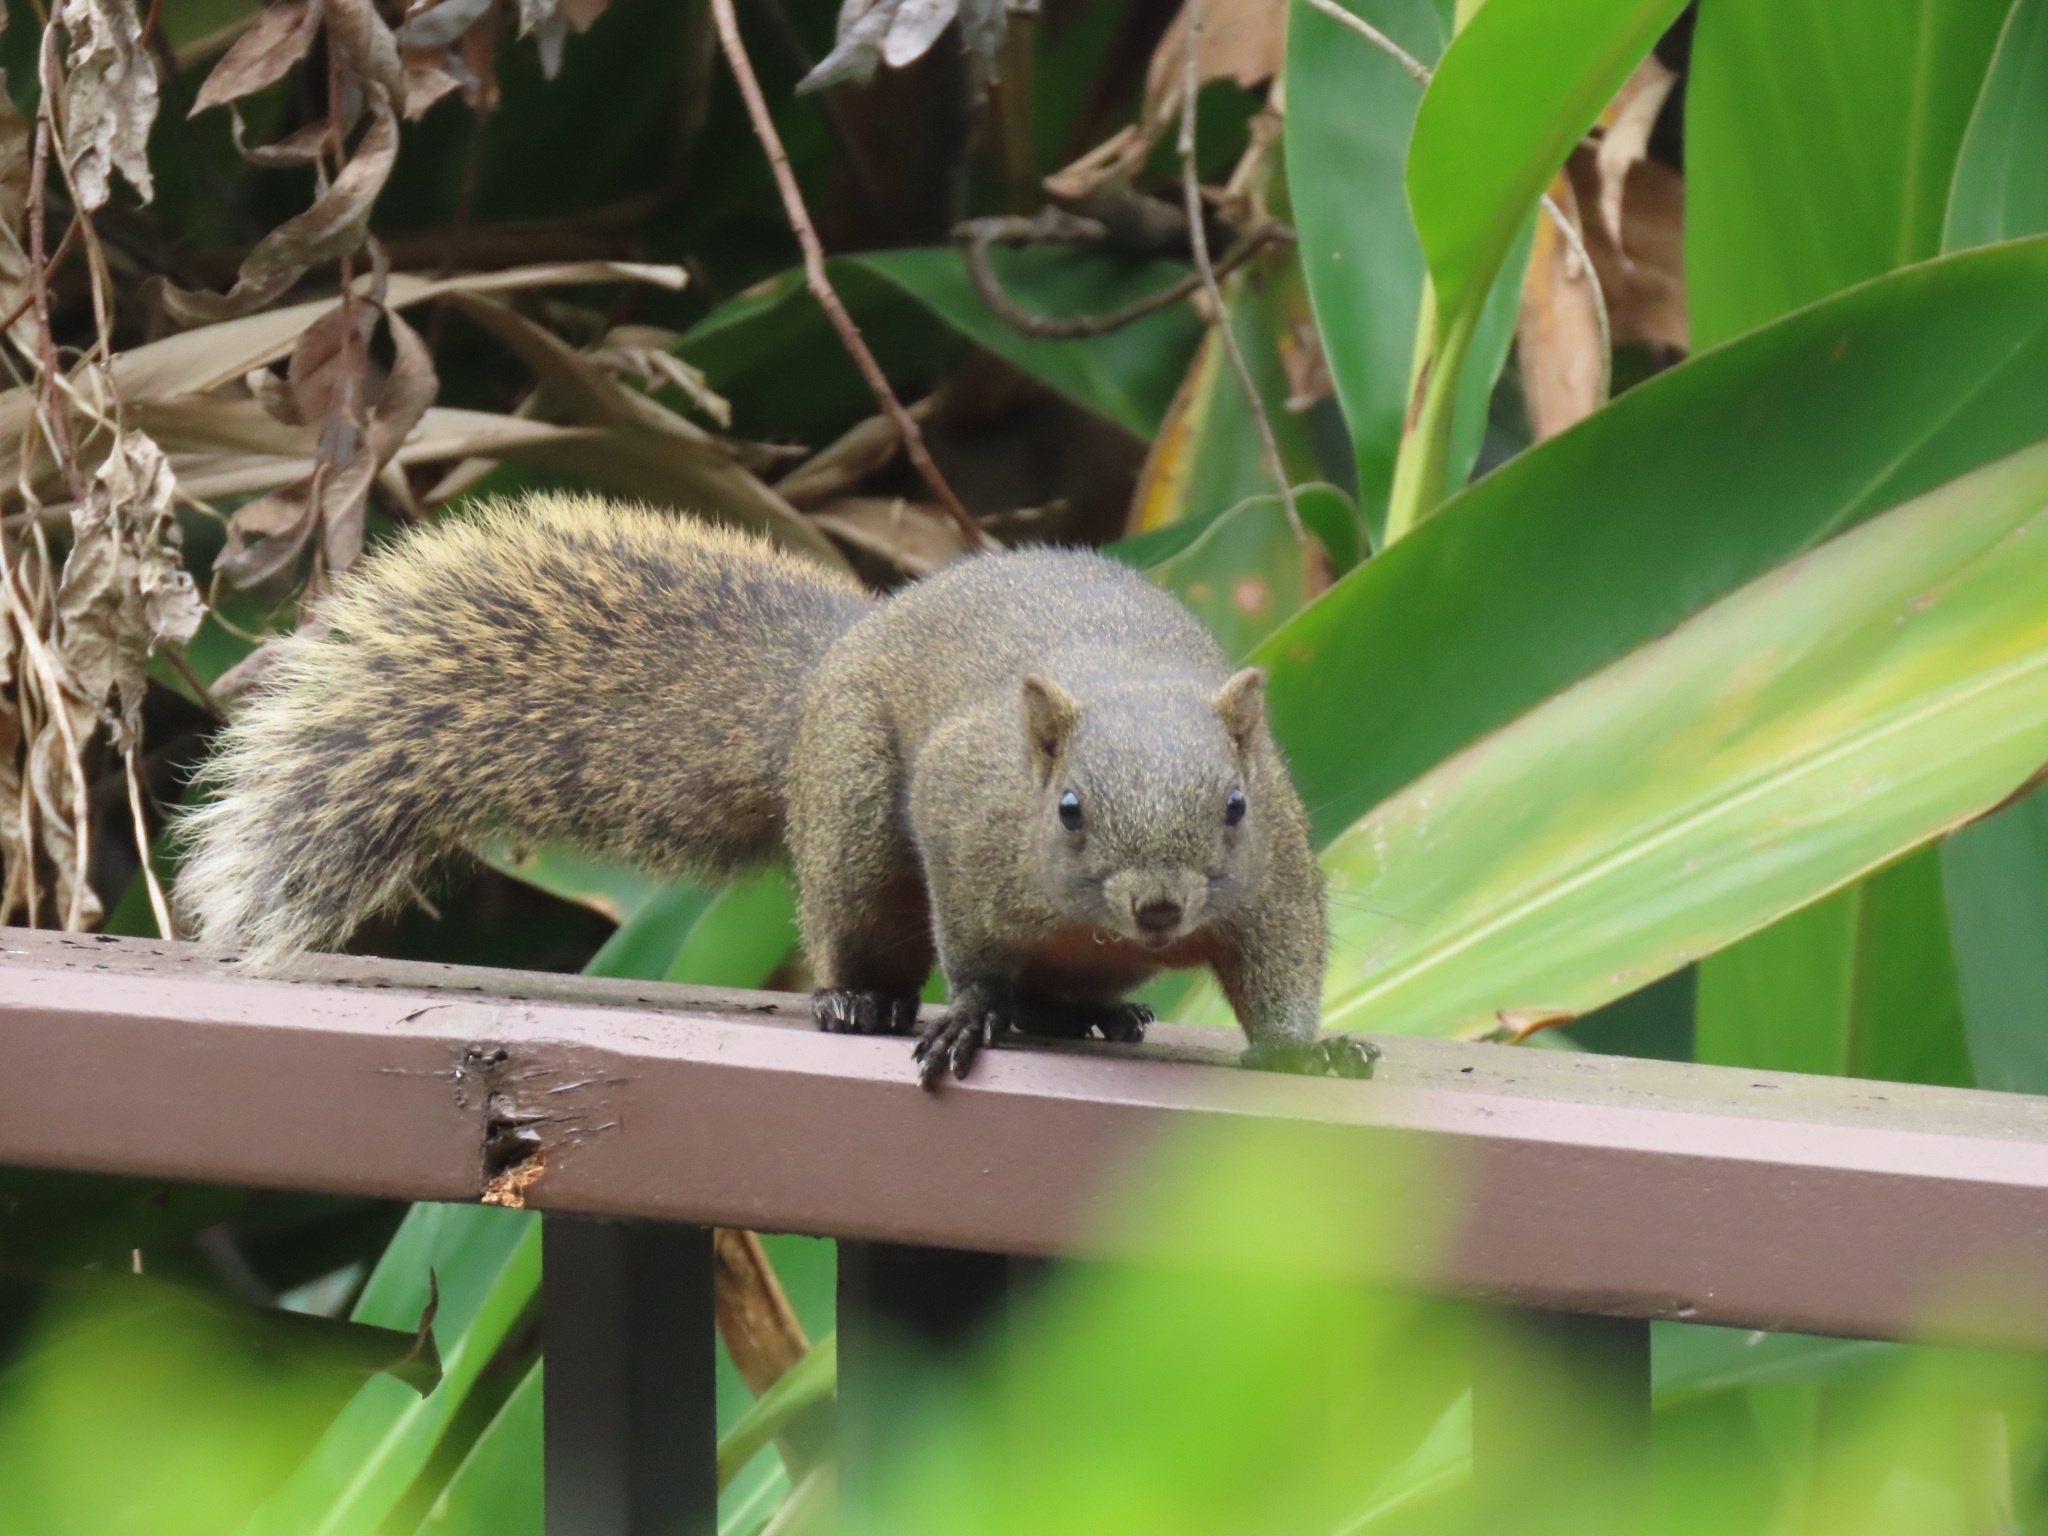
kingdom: Animalia
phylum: Chordata
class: Mammalia
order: Rodentia
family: Sciuridae
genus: Callosciurus
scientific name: Callosciurus erythraeus
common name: Pallas's squirrel
